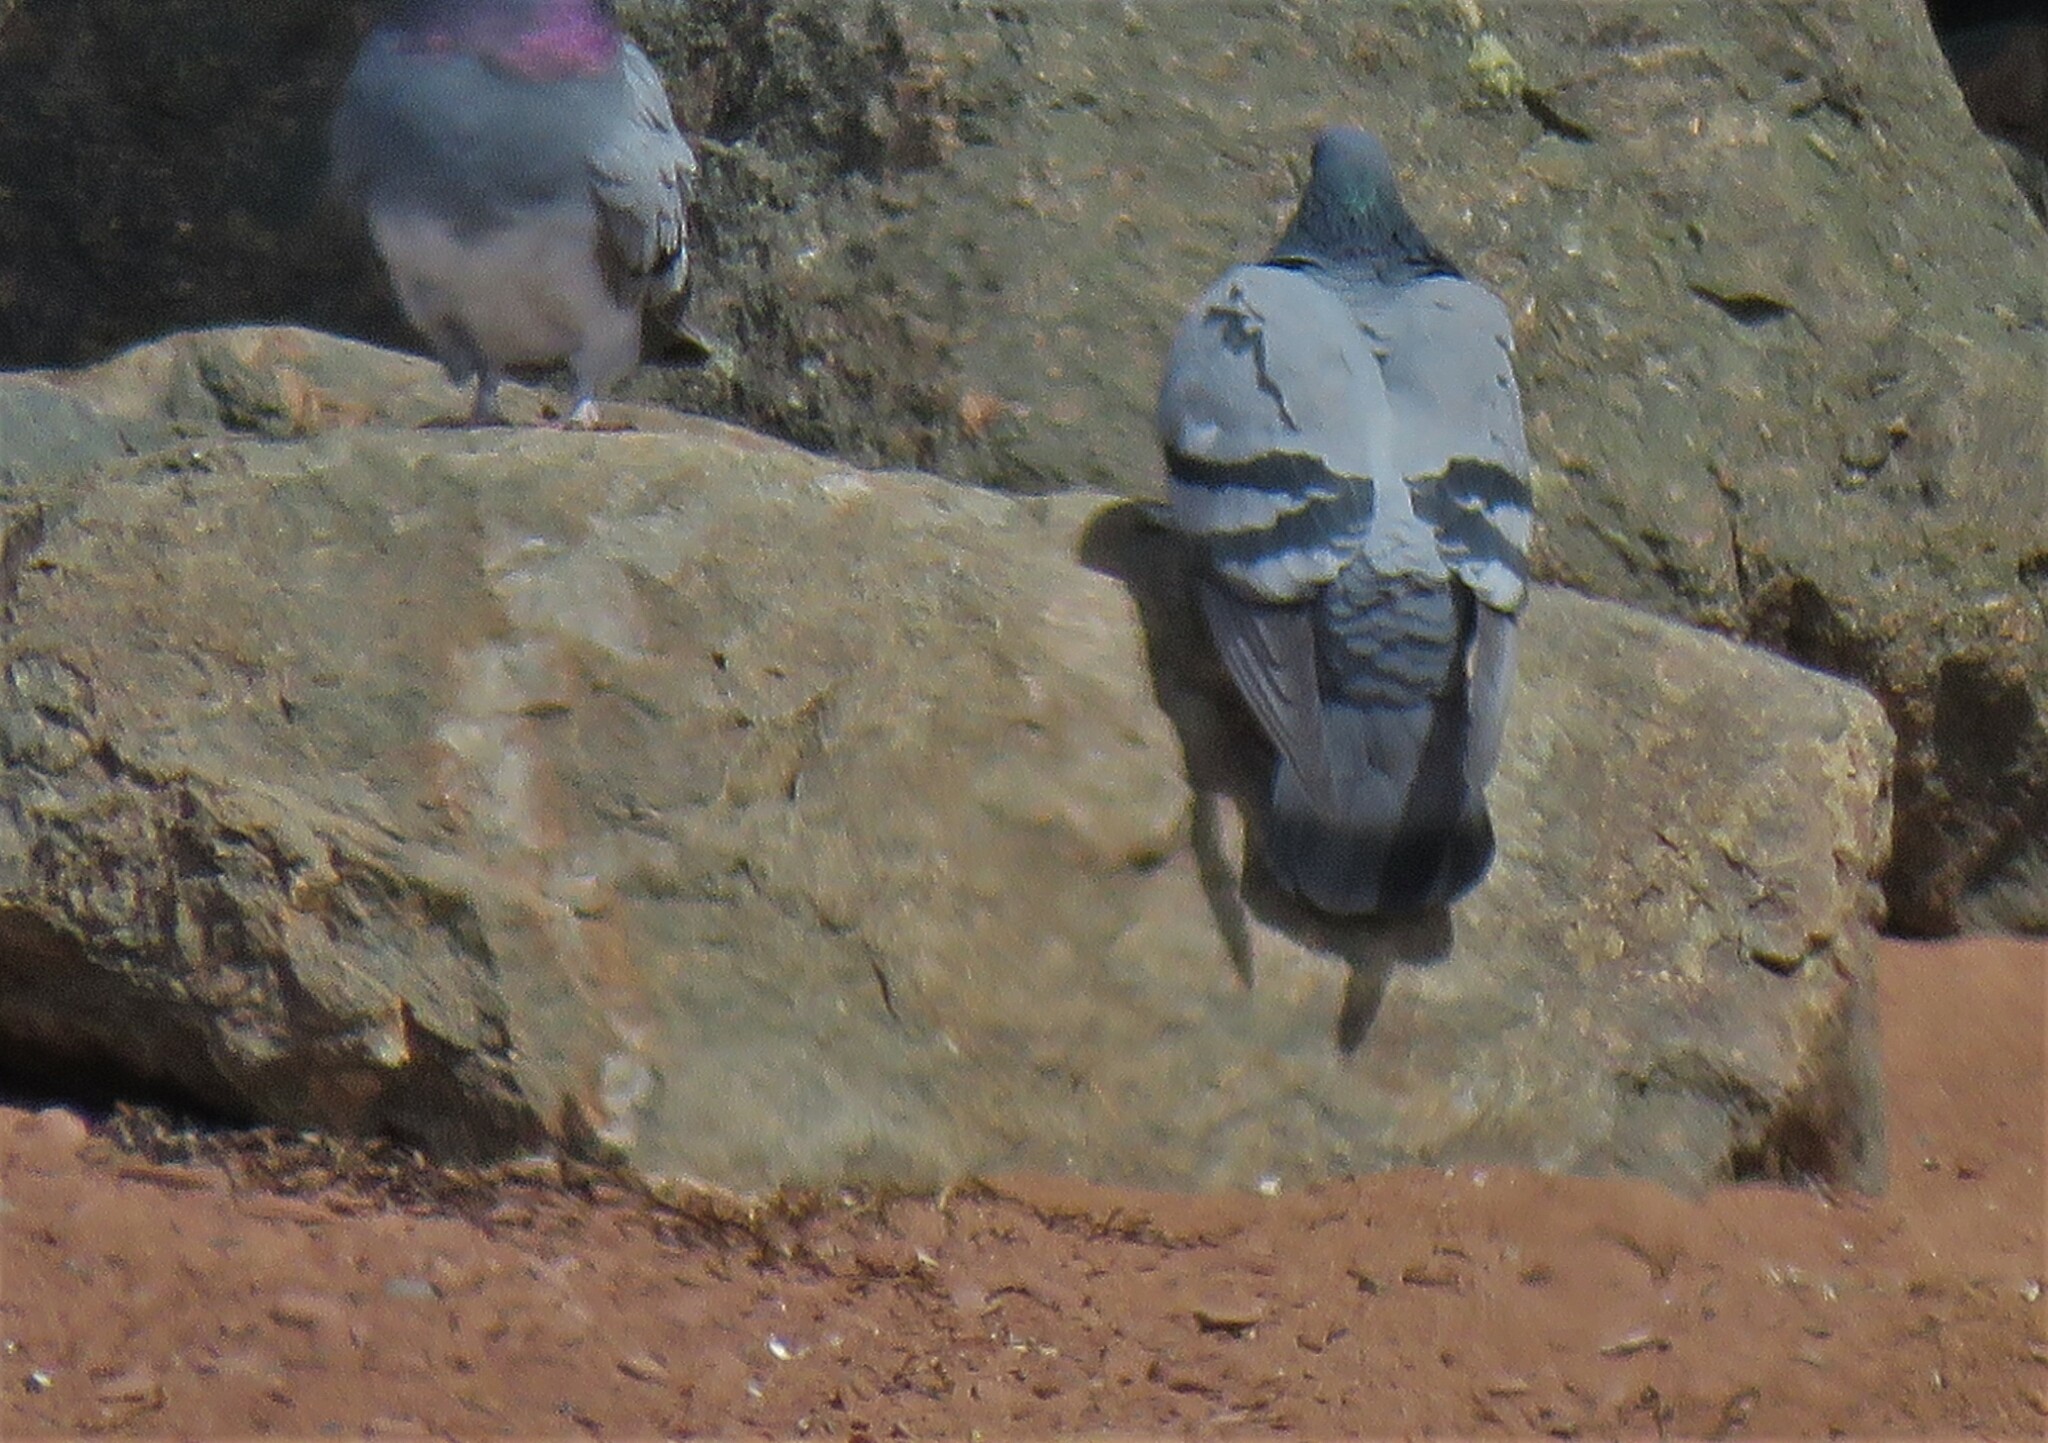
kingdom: Animalia
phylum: Chordata
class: Aves
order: Columbiformes
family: Columbidae
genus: Columba
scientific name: Columba livia
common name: Rock pigeon
